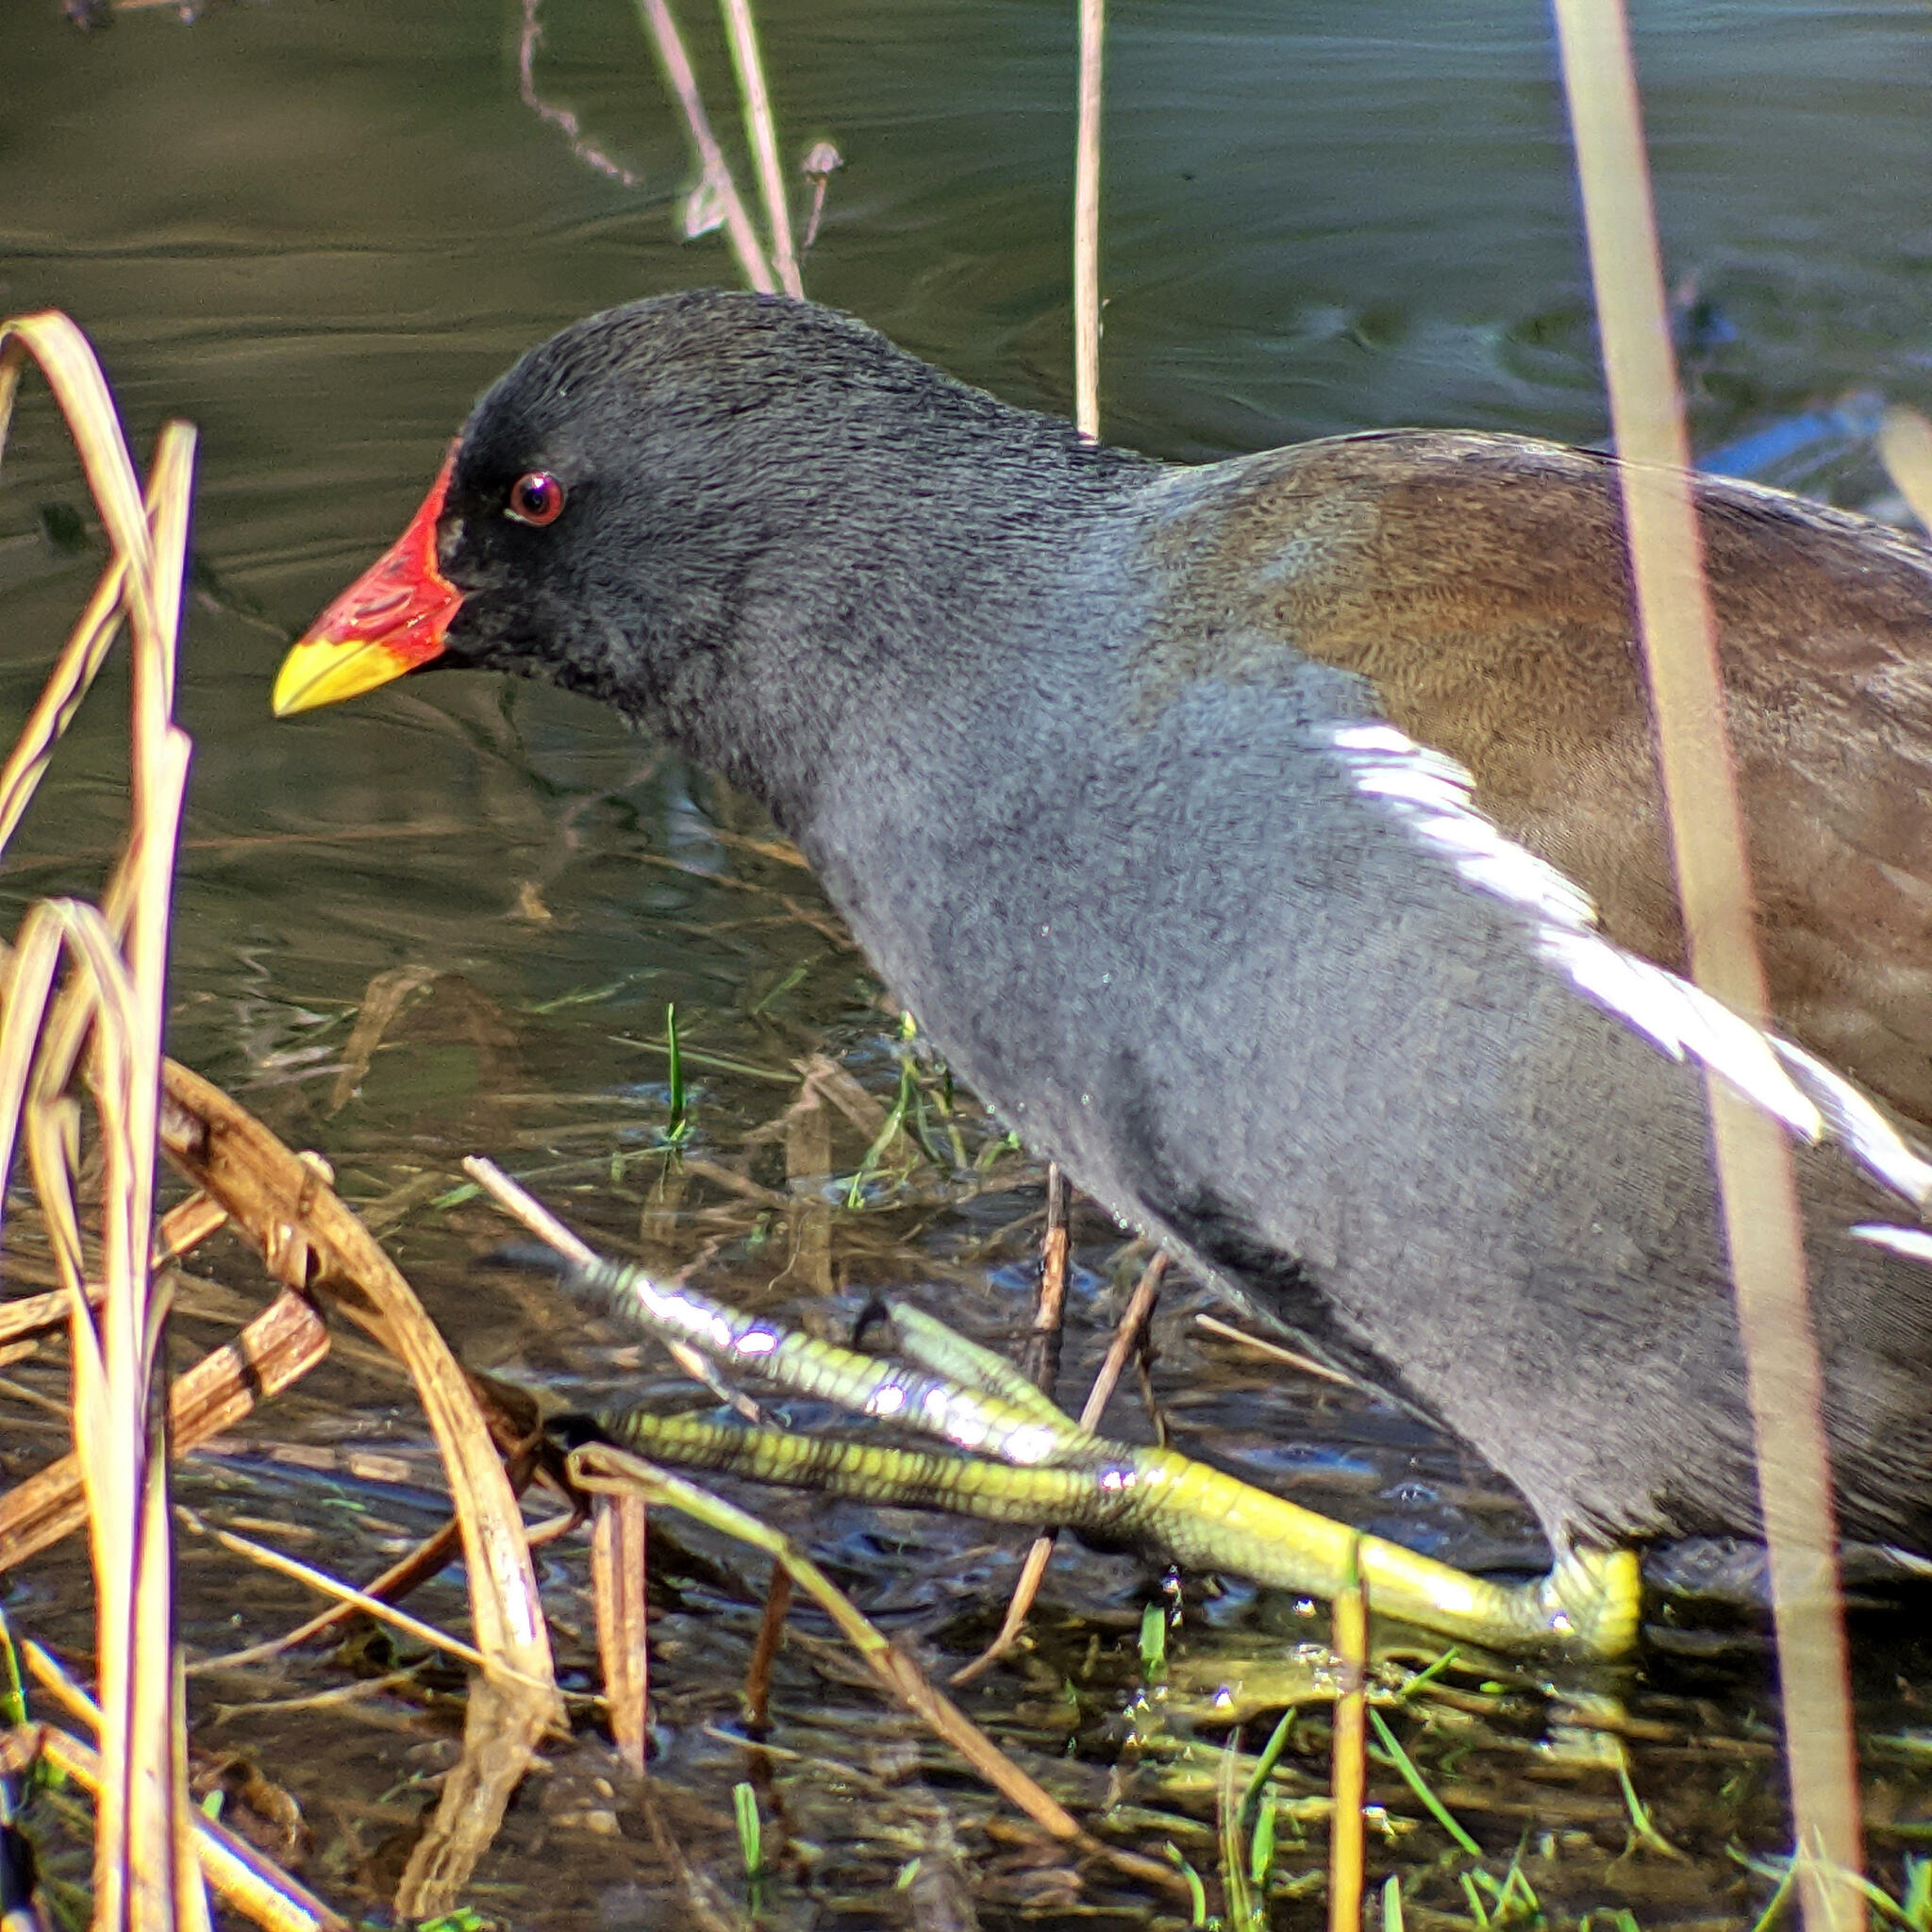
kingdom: Animalia
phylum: Chordata
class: Aves
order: Gruiformes
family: Rallidae
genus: Gallinula
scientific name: Gallinula chloropus
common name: Common moorhen
